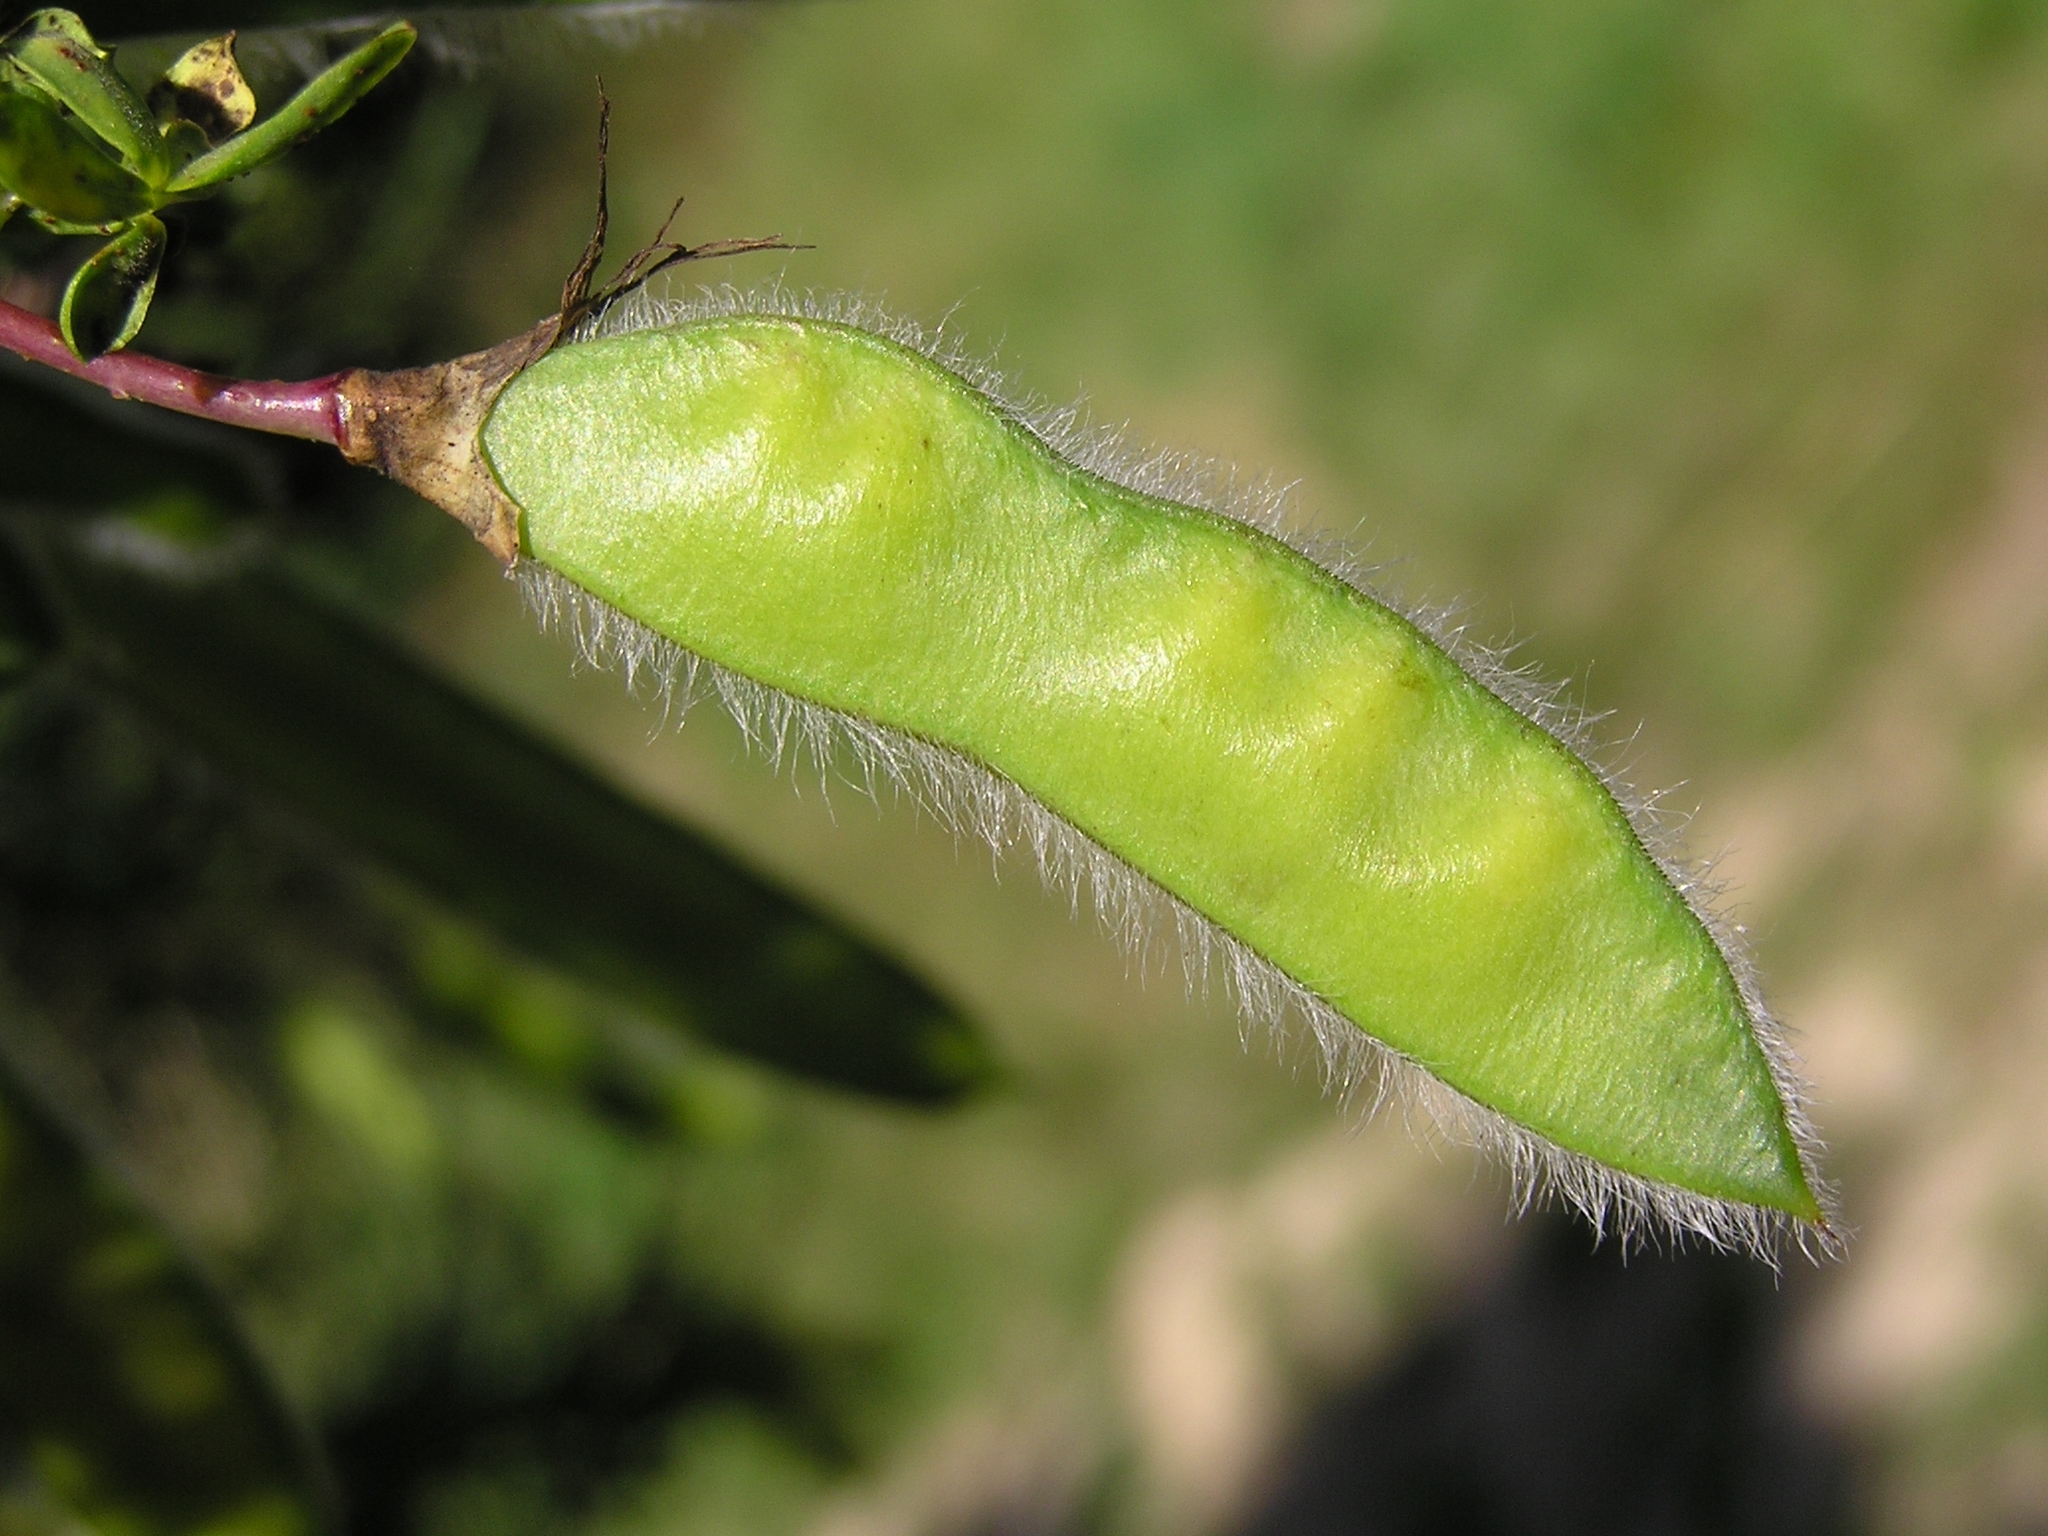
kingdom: Plantae
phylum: Tracheophyta
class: Magnoliopsida
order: Fabales
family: Fabaceae
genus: Cytisus
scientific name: Cytisus scoparius
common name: Scotch broom
